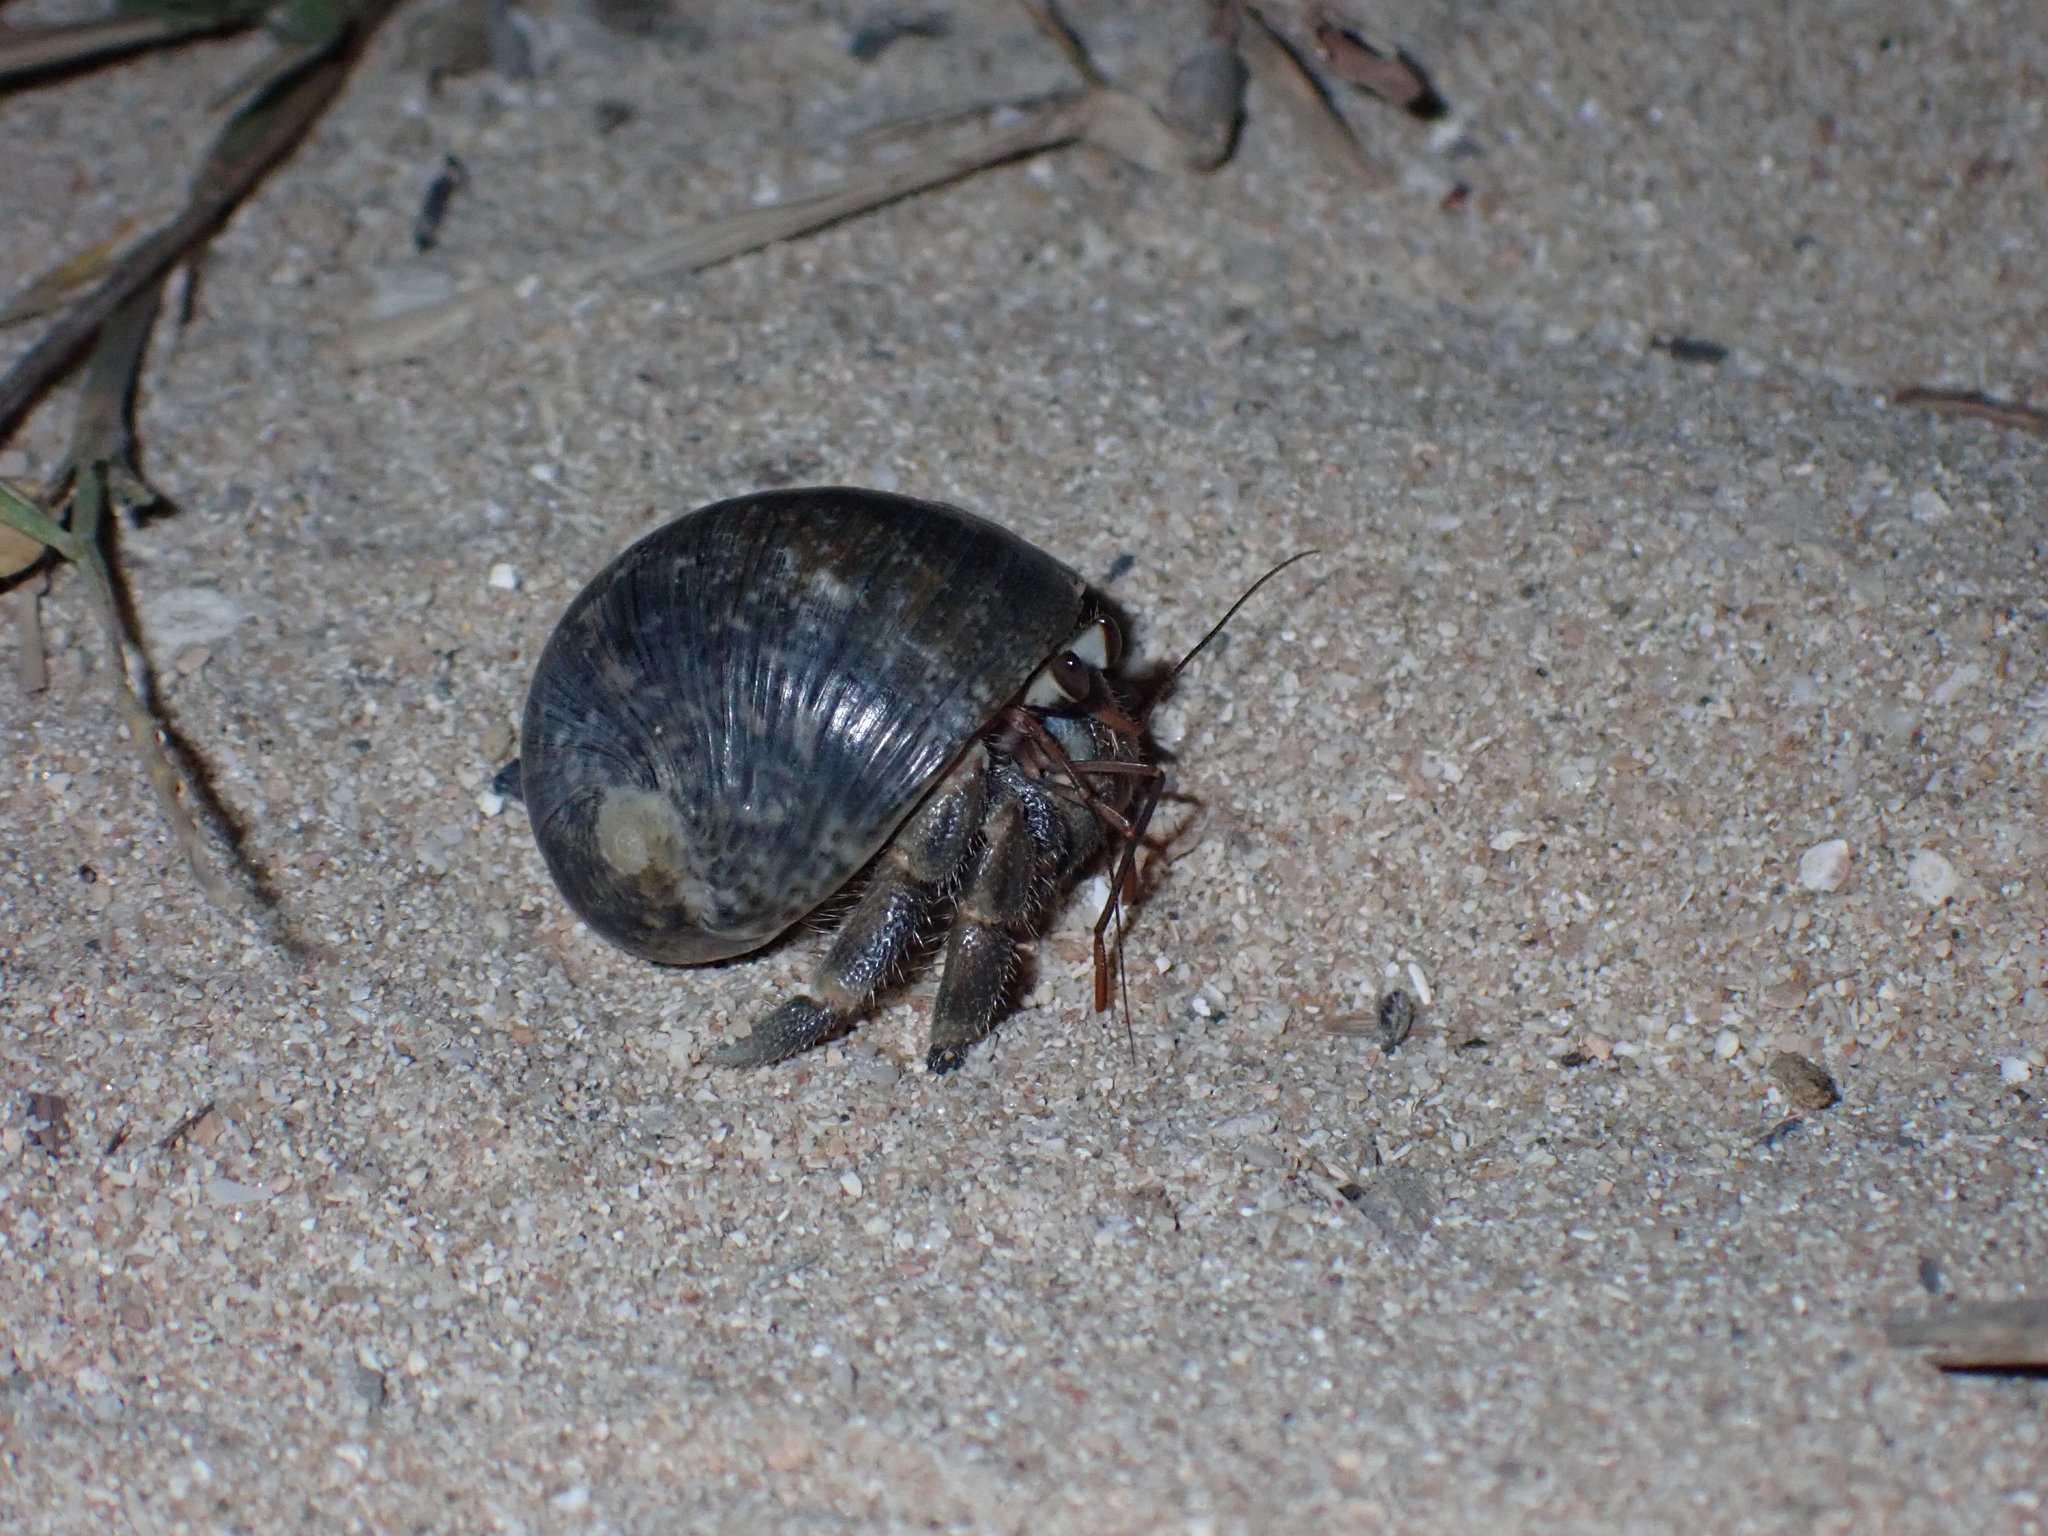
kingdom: Animalia
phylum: Arthropoda
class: Malacostraca
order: Decapoda
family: Coenobitidae
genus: Coenobita
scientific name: Coenobita rugosus
